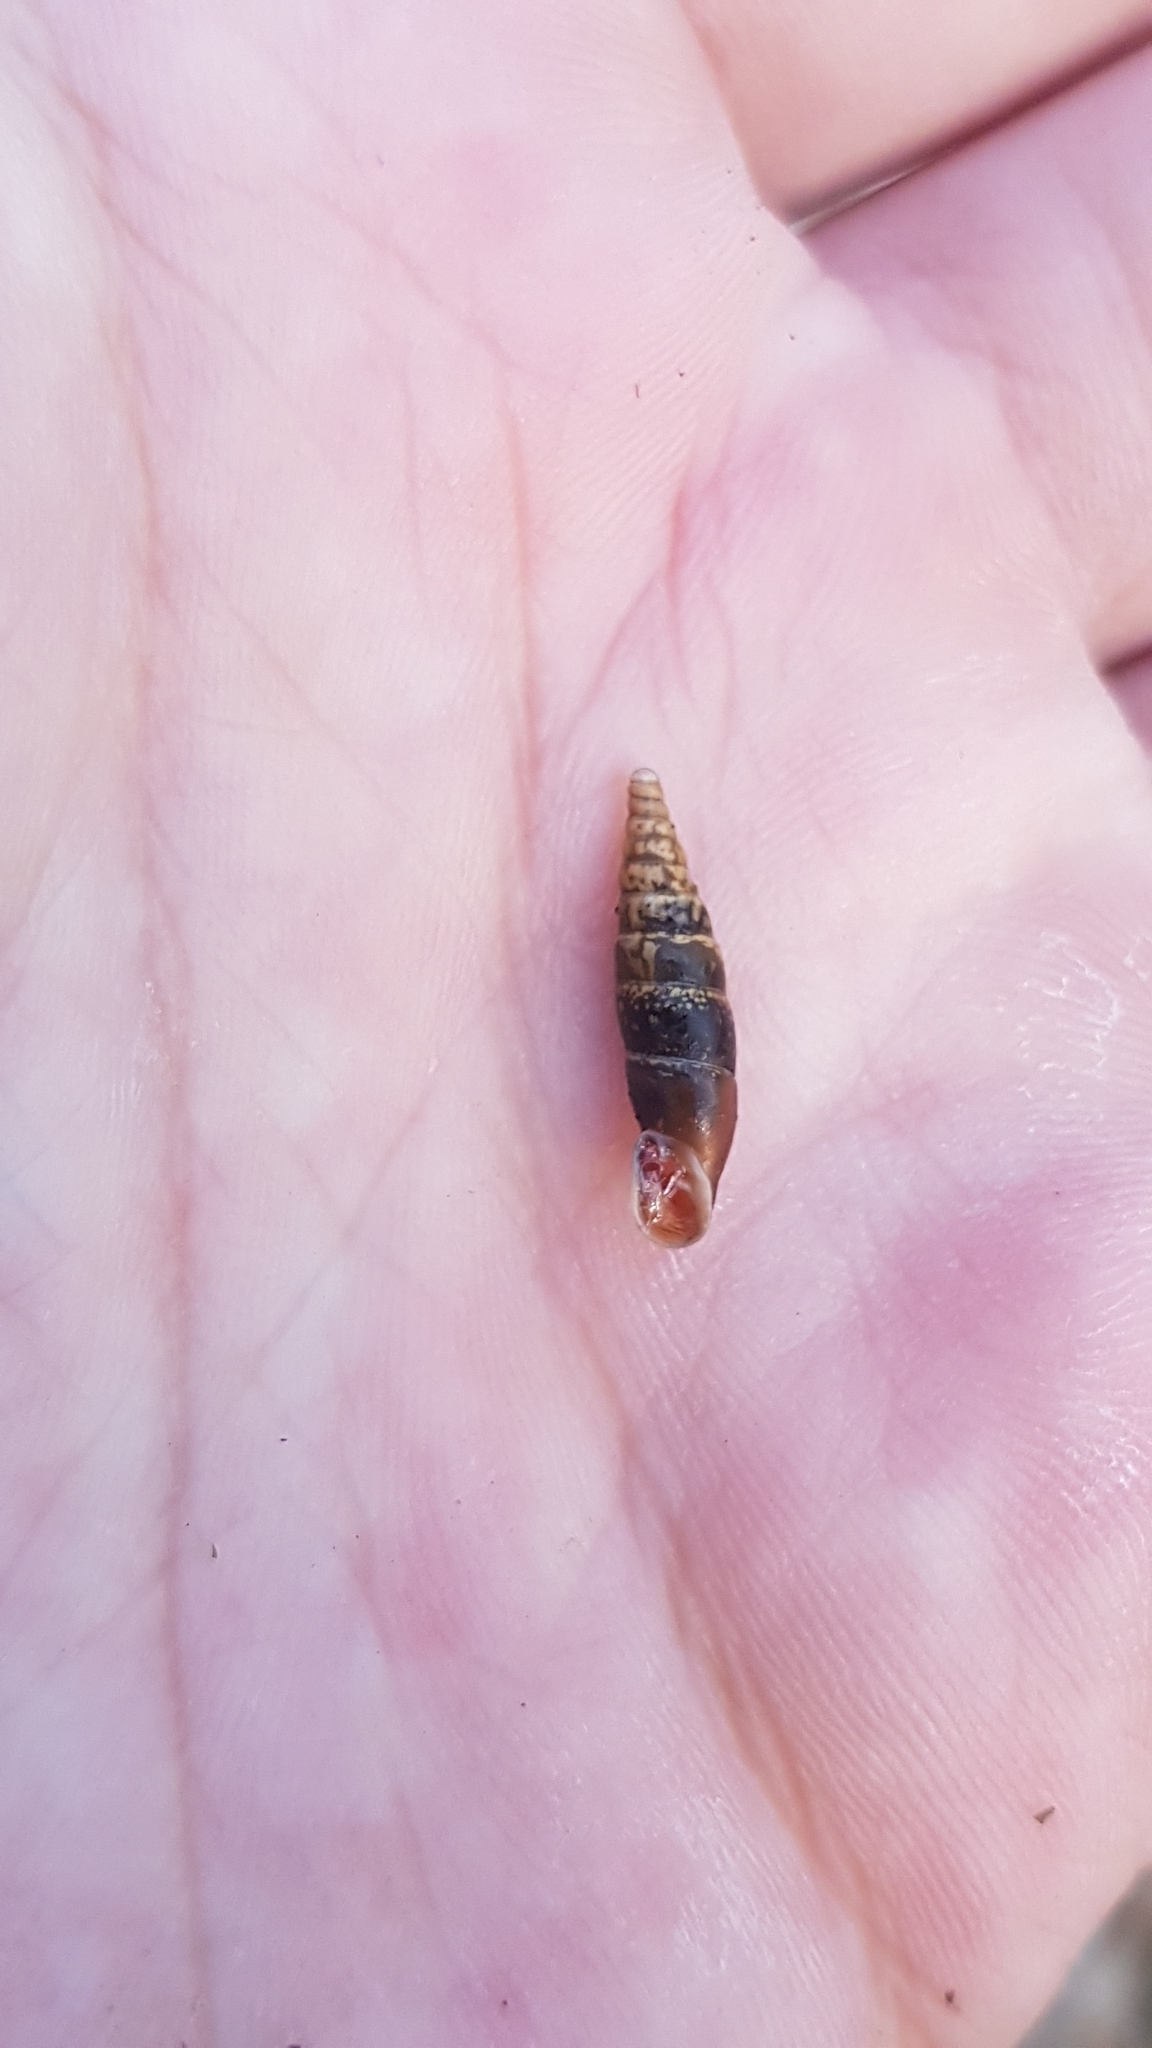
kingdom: Animalia
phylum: Mollusca
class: Gastropoda
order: Stylommatophora
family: Clausiliidae
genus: Cochlodina
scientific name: Cochlodina laminata
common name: Plaited door snail
